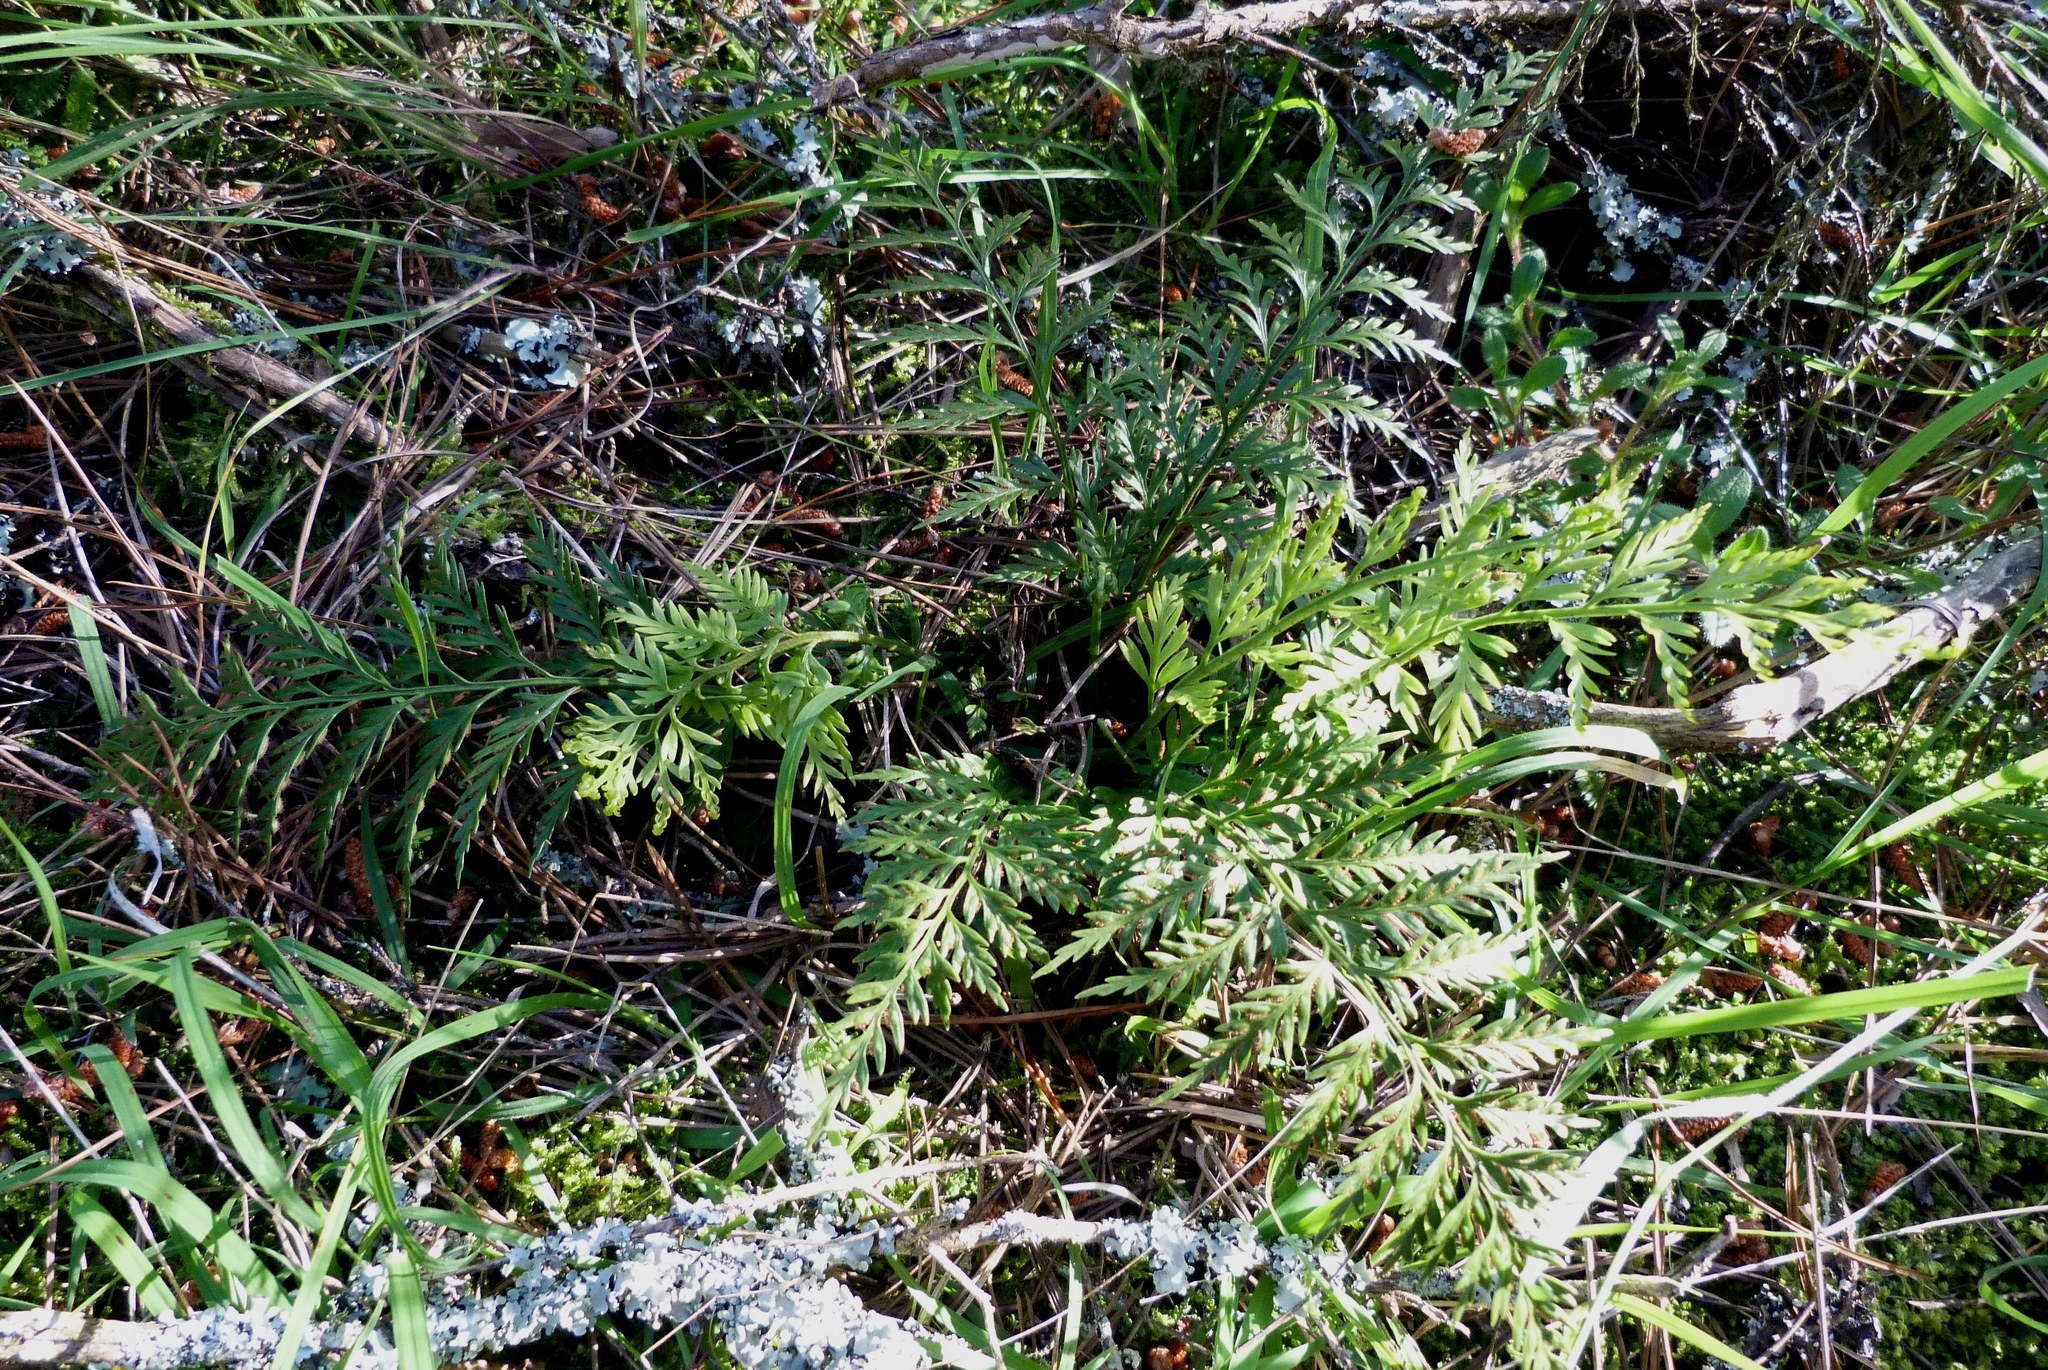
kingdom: Plantae
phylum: Tracheophyta
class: Polypodiopsida
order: Polypodiales
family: Aspleniaceae
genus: Asplenium
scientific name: Asplenium appendiculatum
